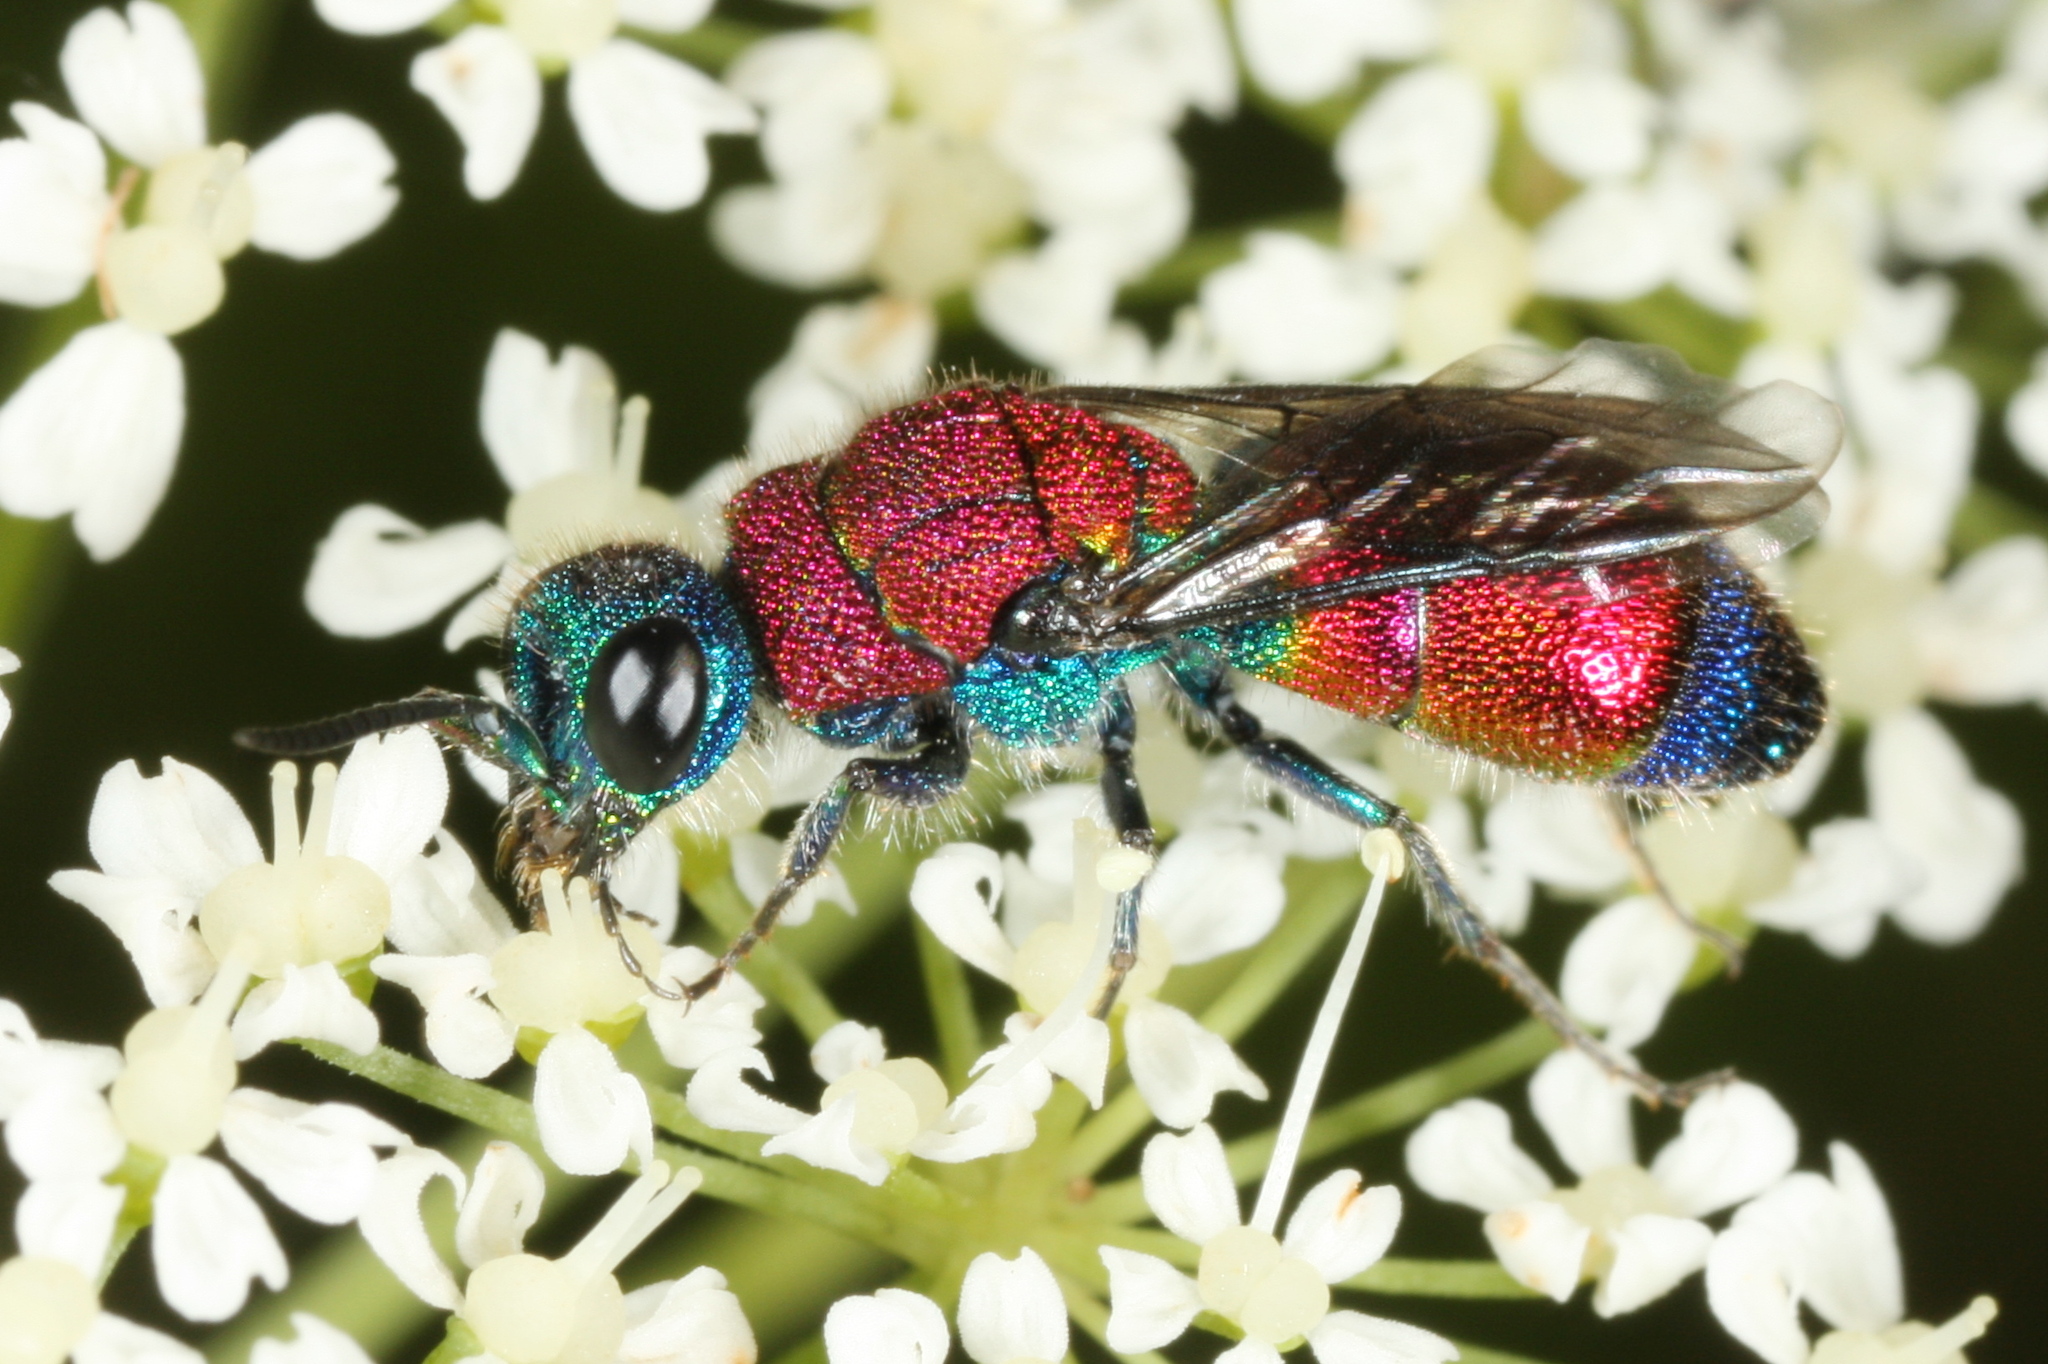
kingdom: Animalia
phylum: Arthropoda
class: Insecta
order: Hymenoptera
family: Chrysididae
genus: Chrysis
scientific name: Chrysis viridula
